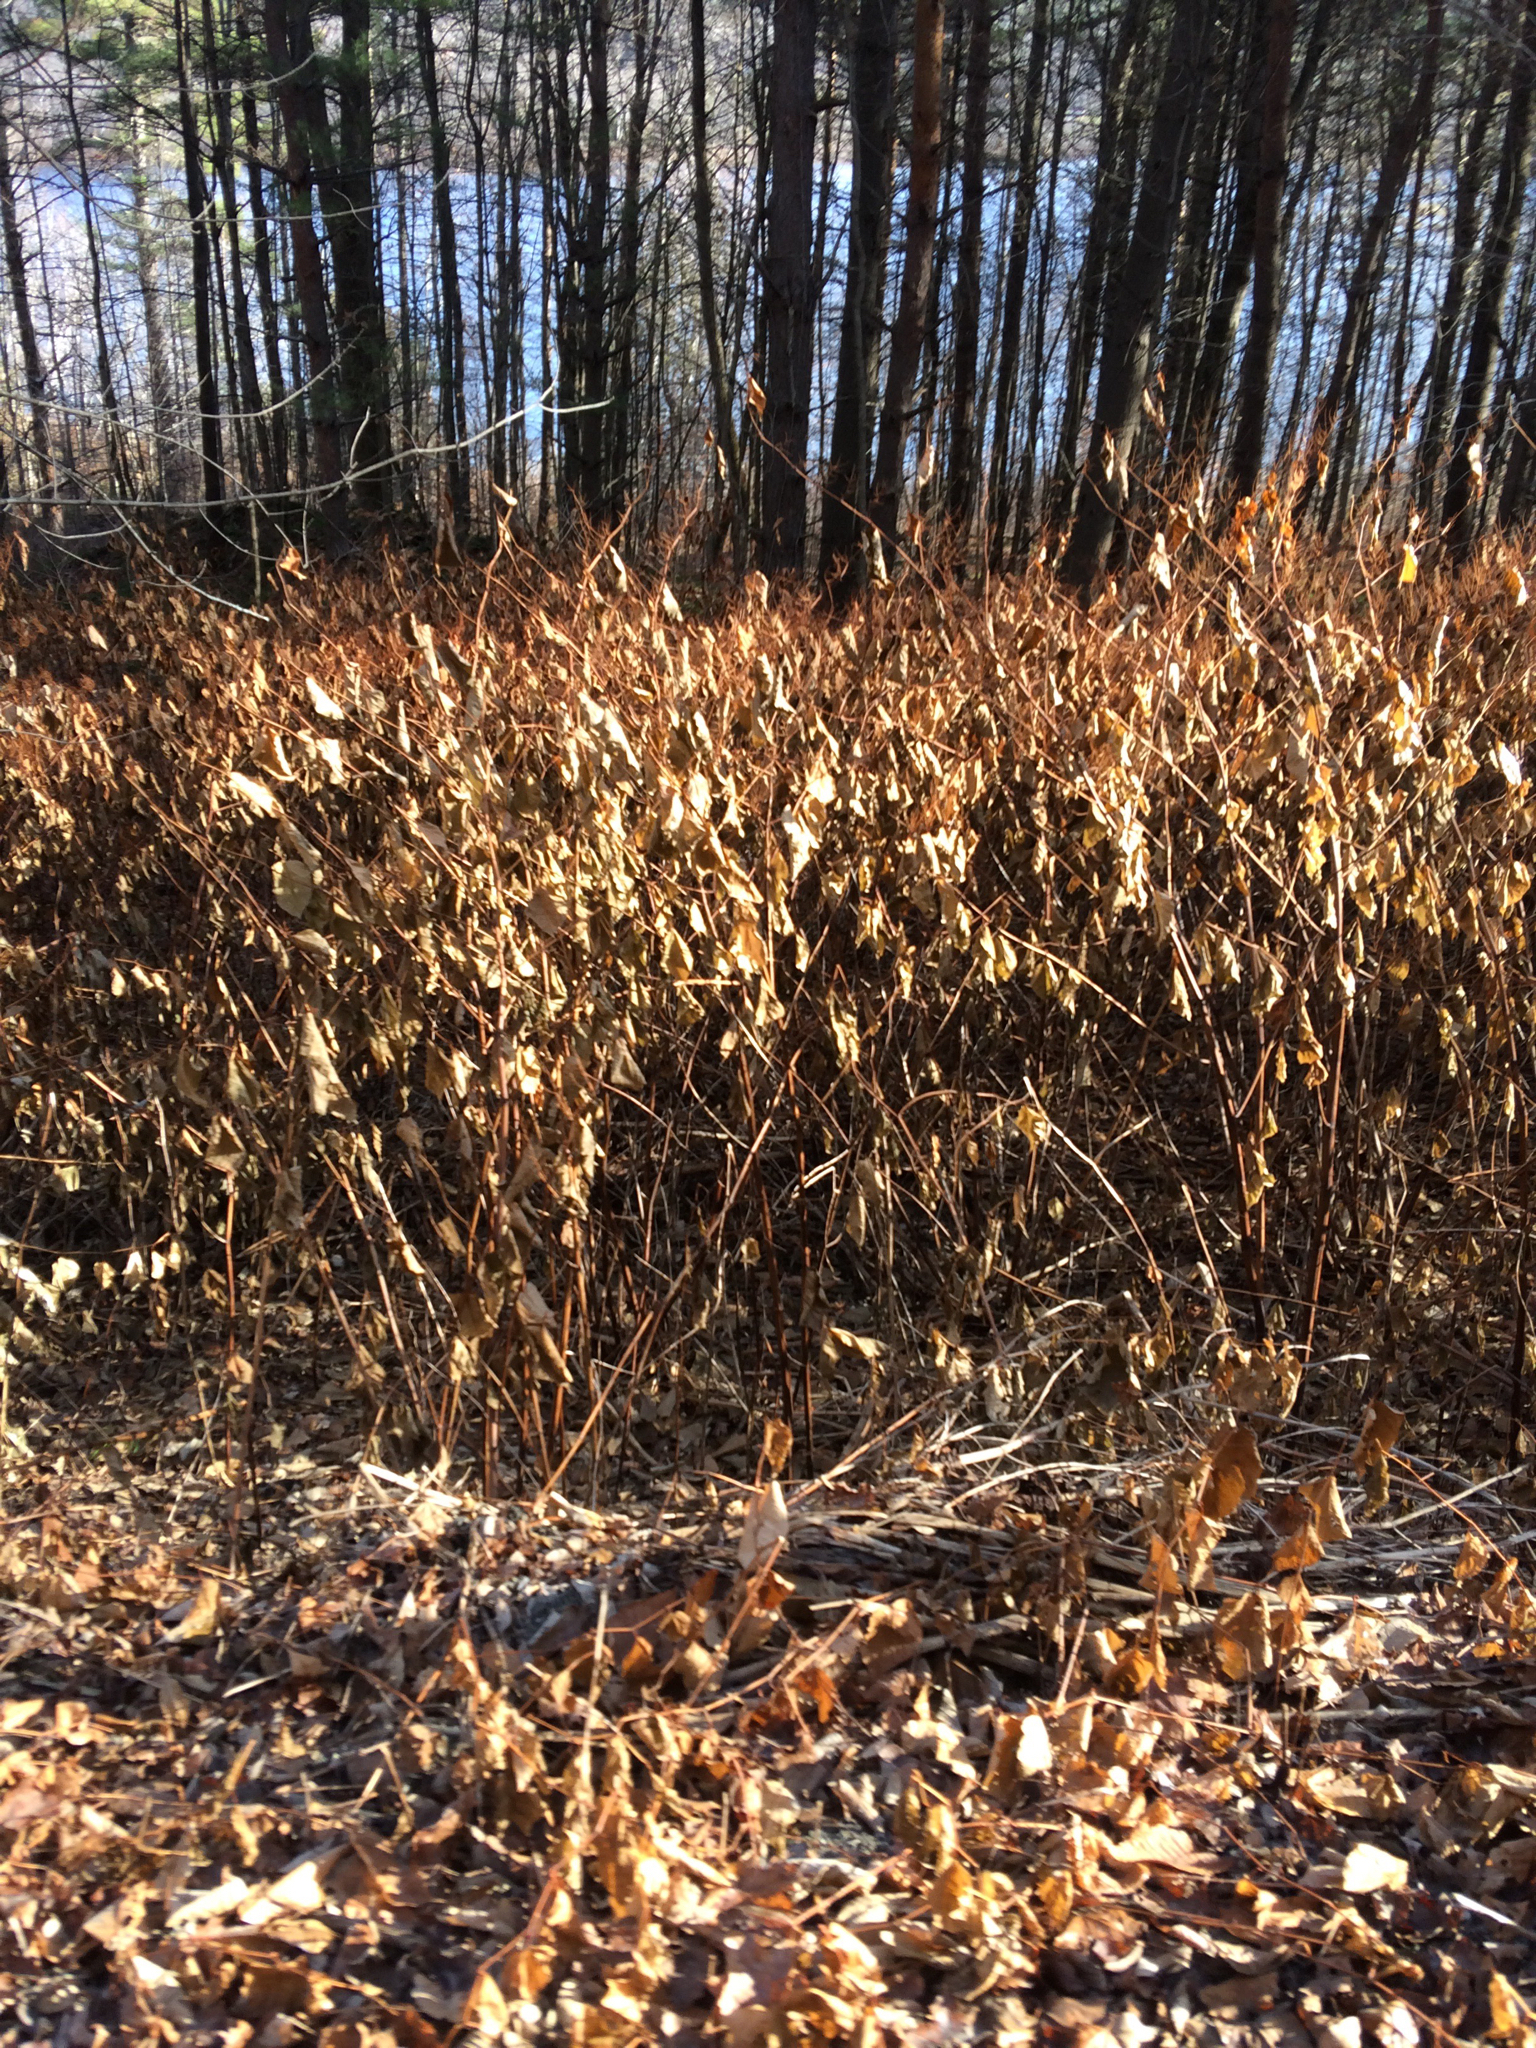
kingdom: Plantae
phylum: Tracheophyta
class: Magnoliopsida
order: Caryophyllales
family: Polygonaceae
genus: Reynoutria
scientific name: Reynoutria japonica
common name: Japanese knotweed
